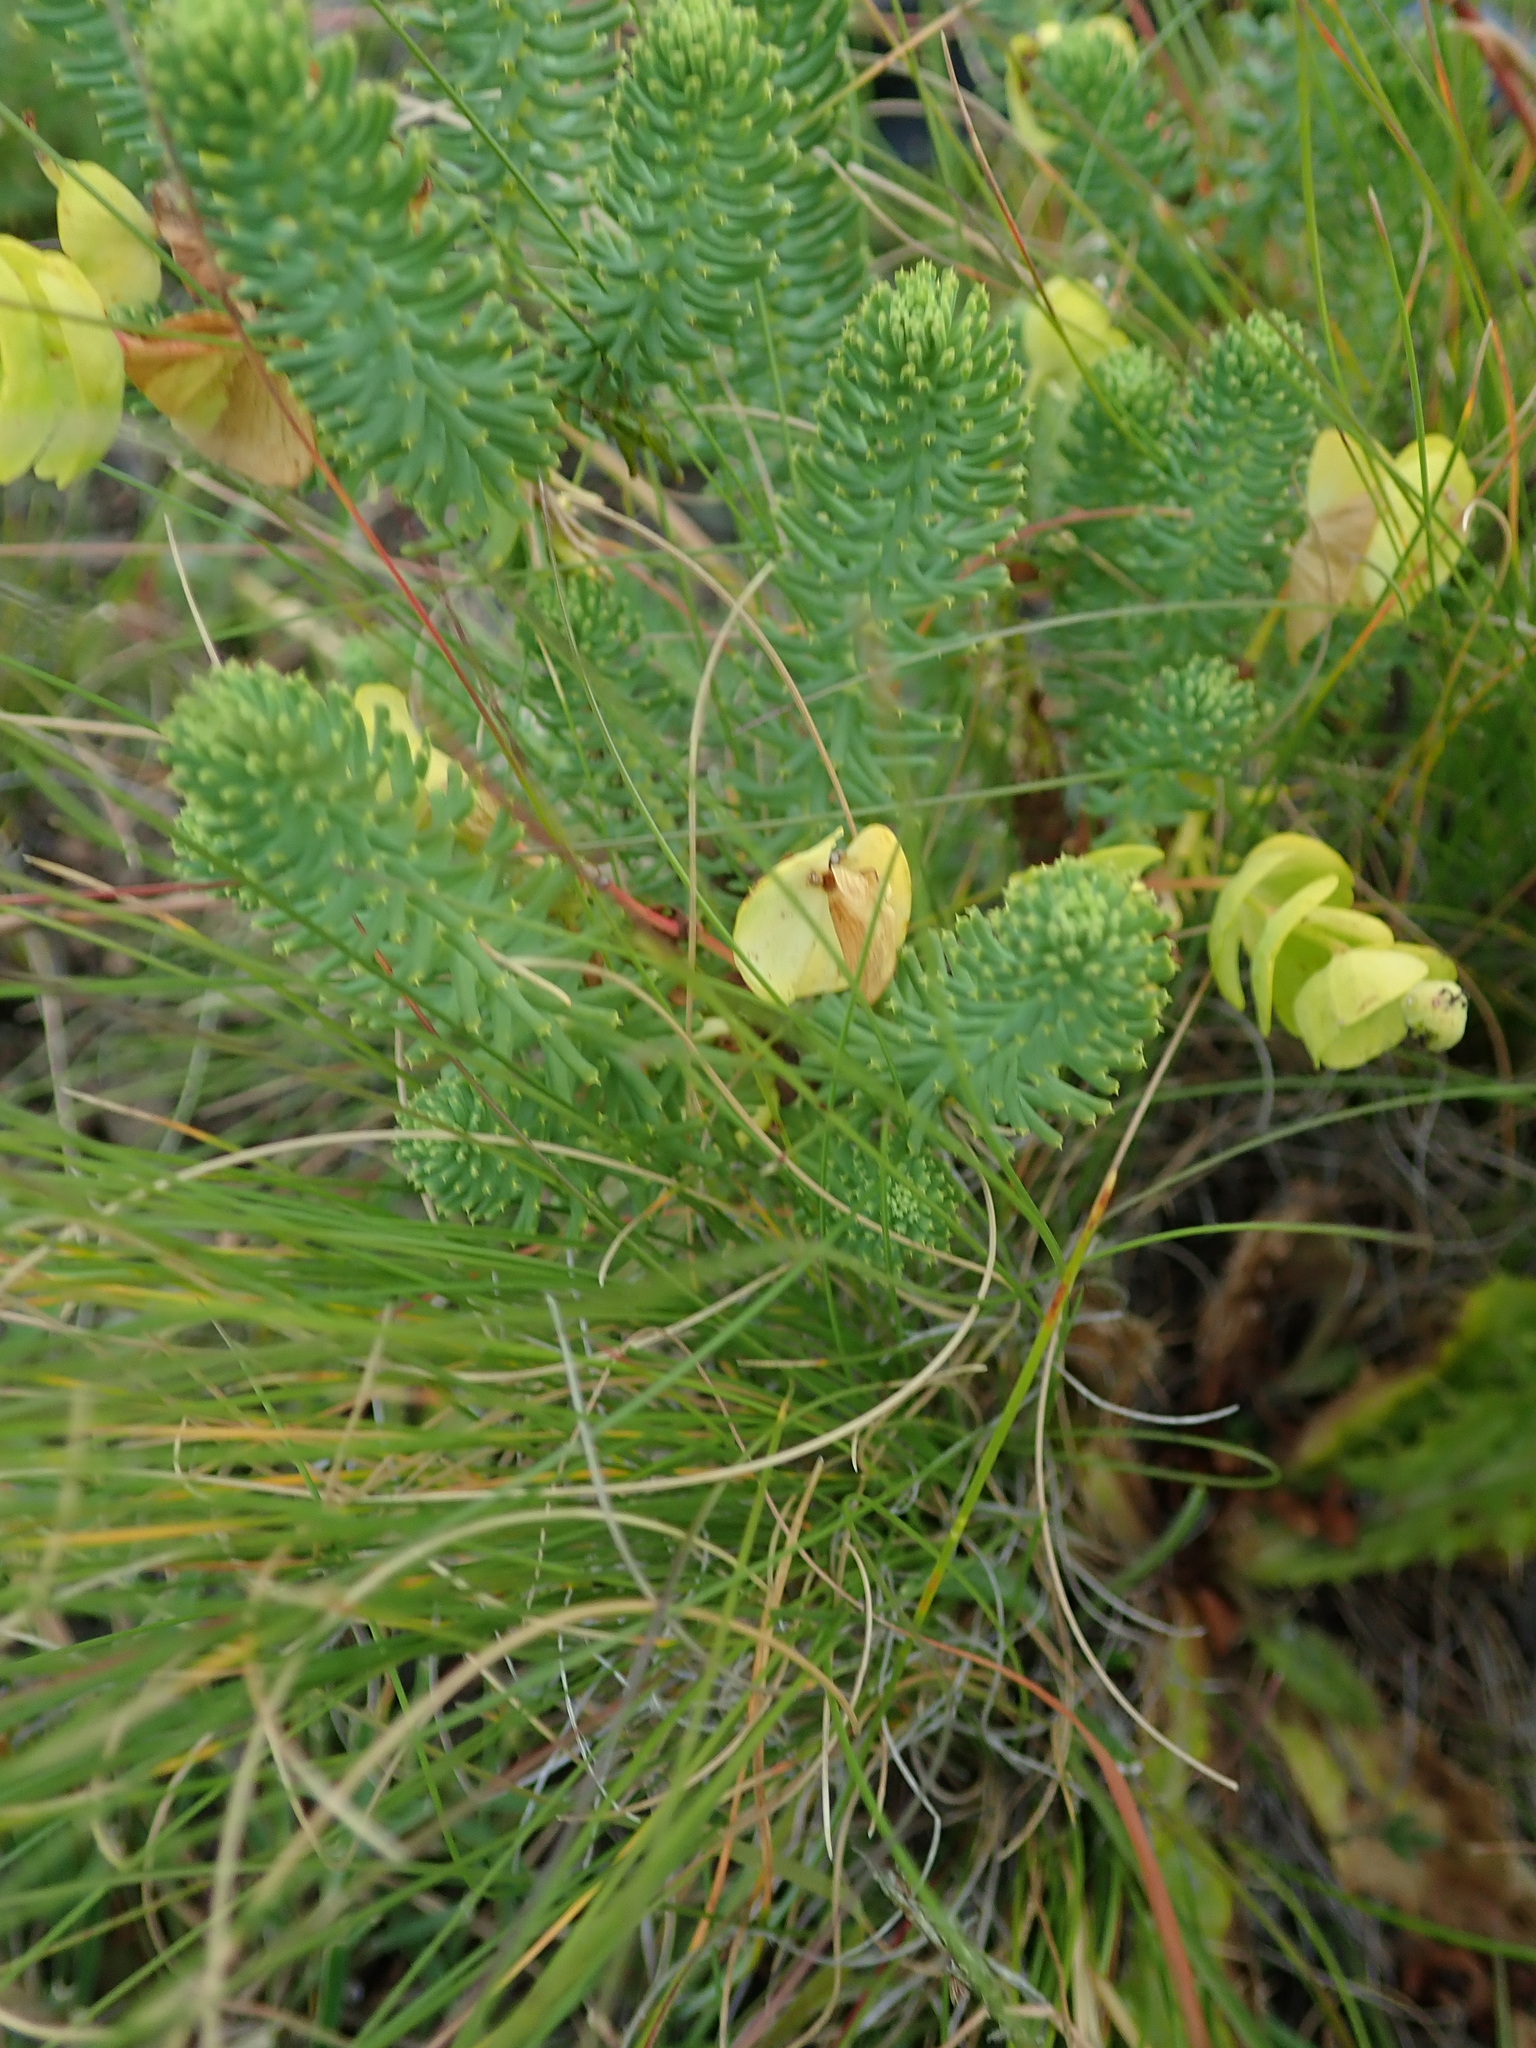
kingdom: Plantae
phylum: Tracheophyta
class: Magnoliopsida
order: Malpighiales
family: Euphorbiaceae
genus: Euphorbia
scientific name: Euphorbia natalensis
